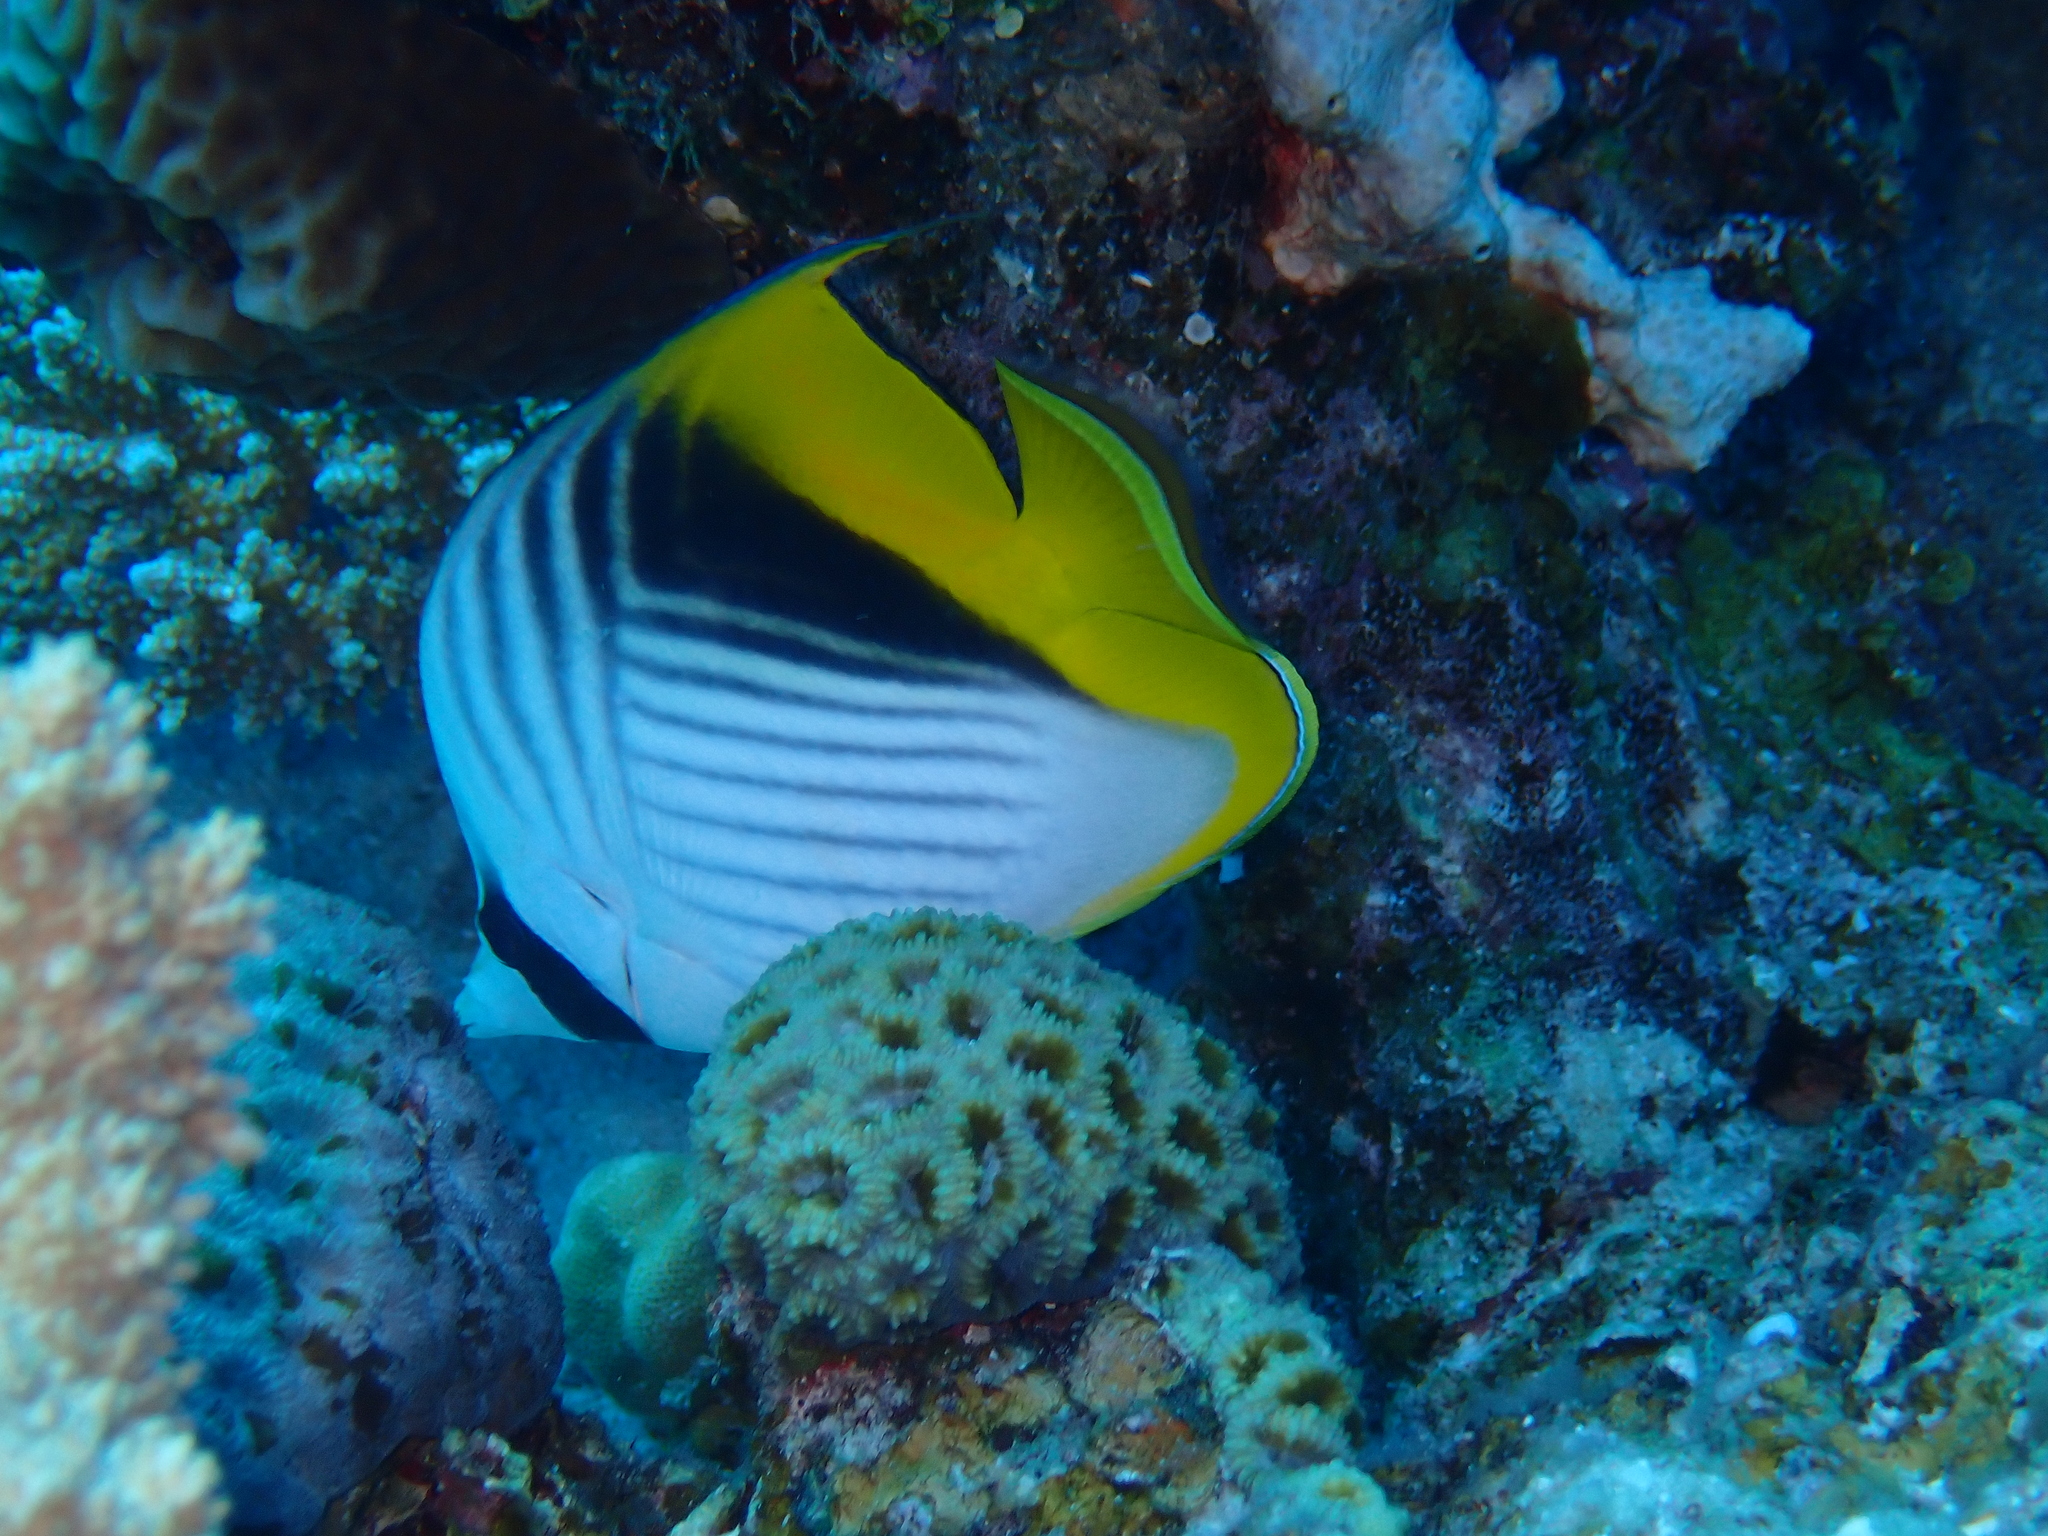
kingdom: Animalia
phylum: Chordata
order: Perciformes
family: Chaetodontidae
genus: Chaetodon
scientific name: Chaetodon auriga
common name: Threadfin butterflyfish
